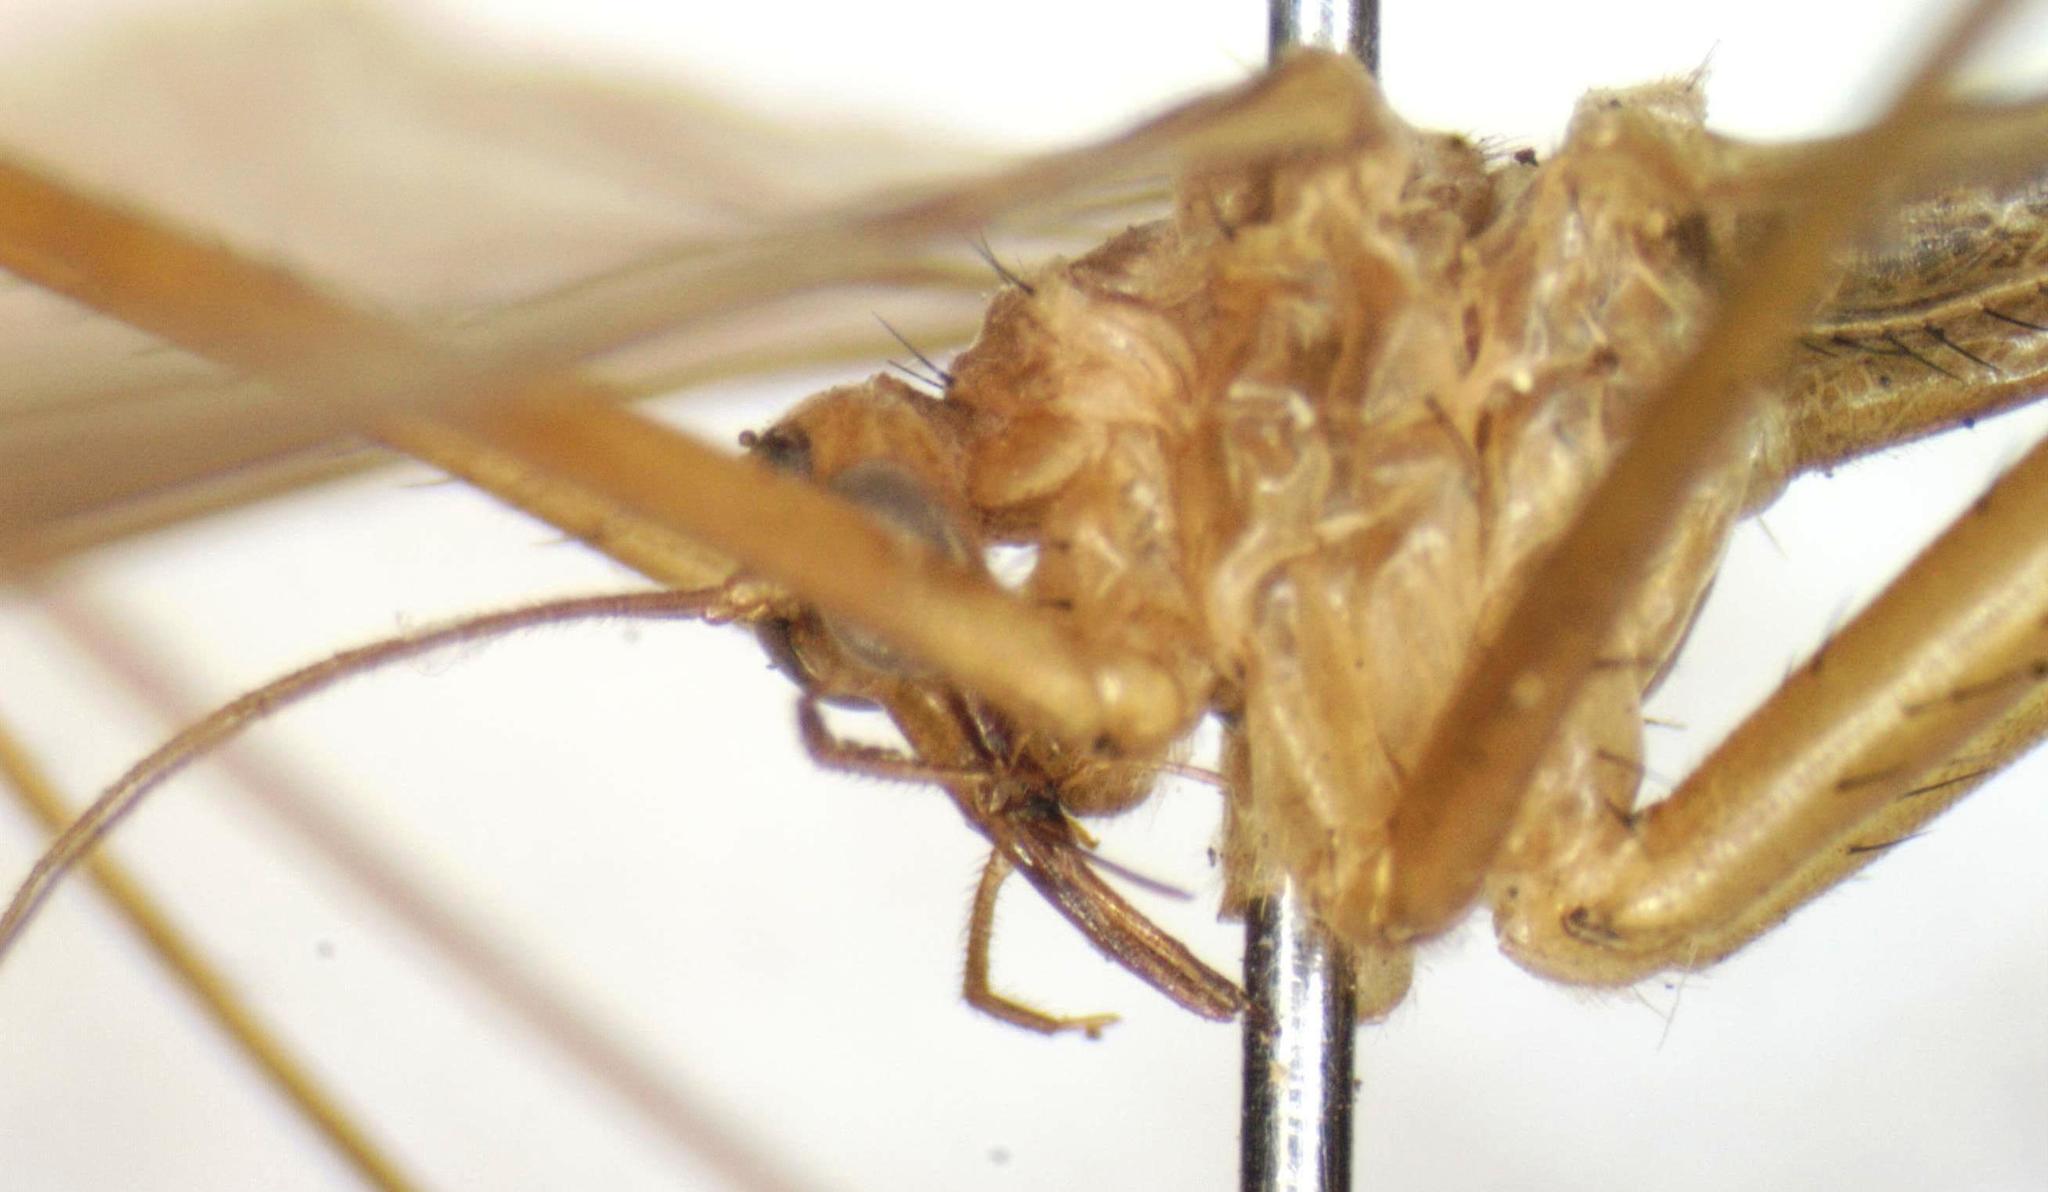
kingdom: Animalia
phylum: Arthropoda
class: Insecta
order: Mecoptera
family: Bittacidae
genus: Bittacus
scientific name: Bittacus spatulatus
